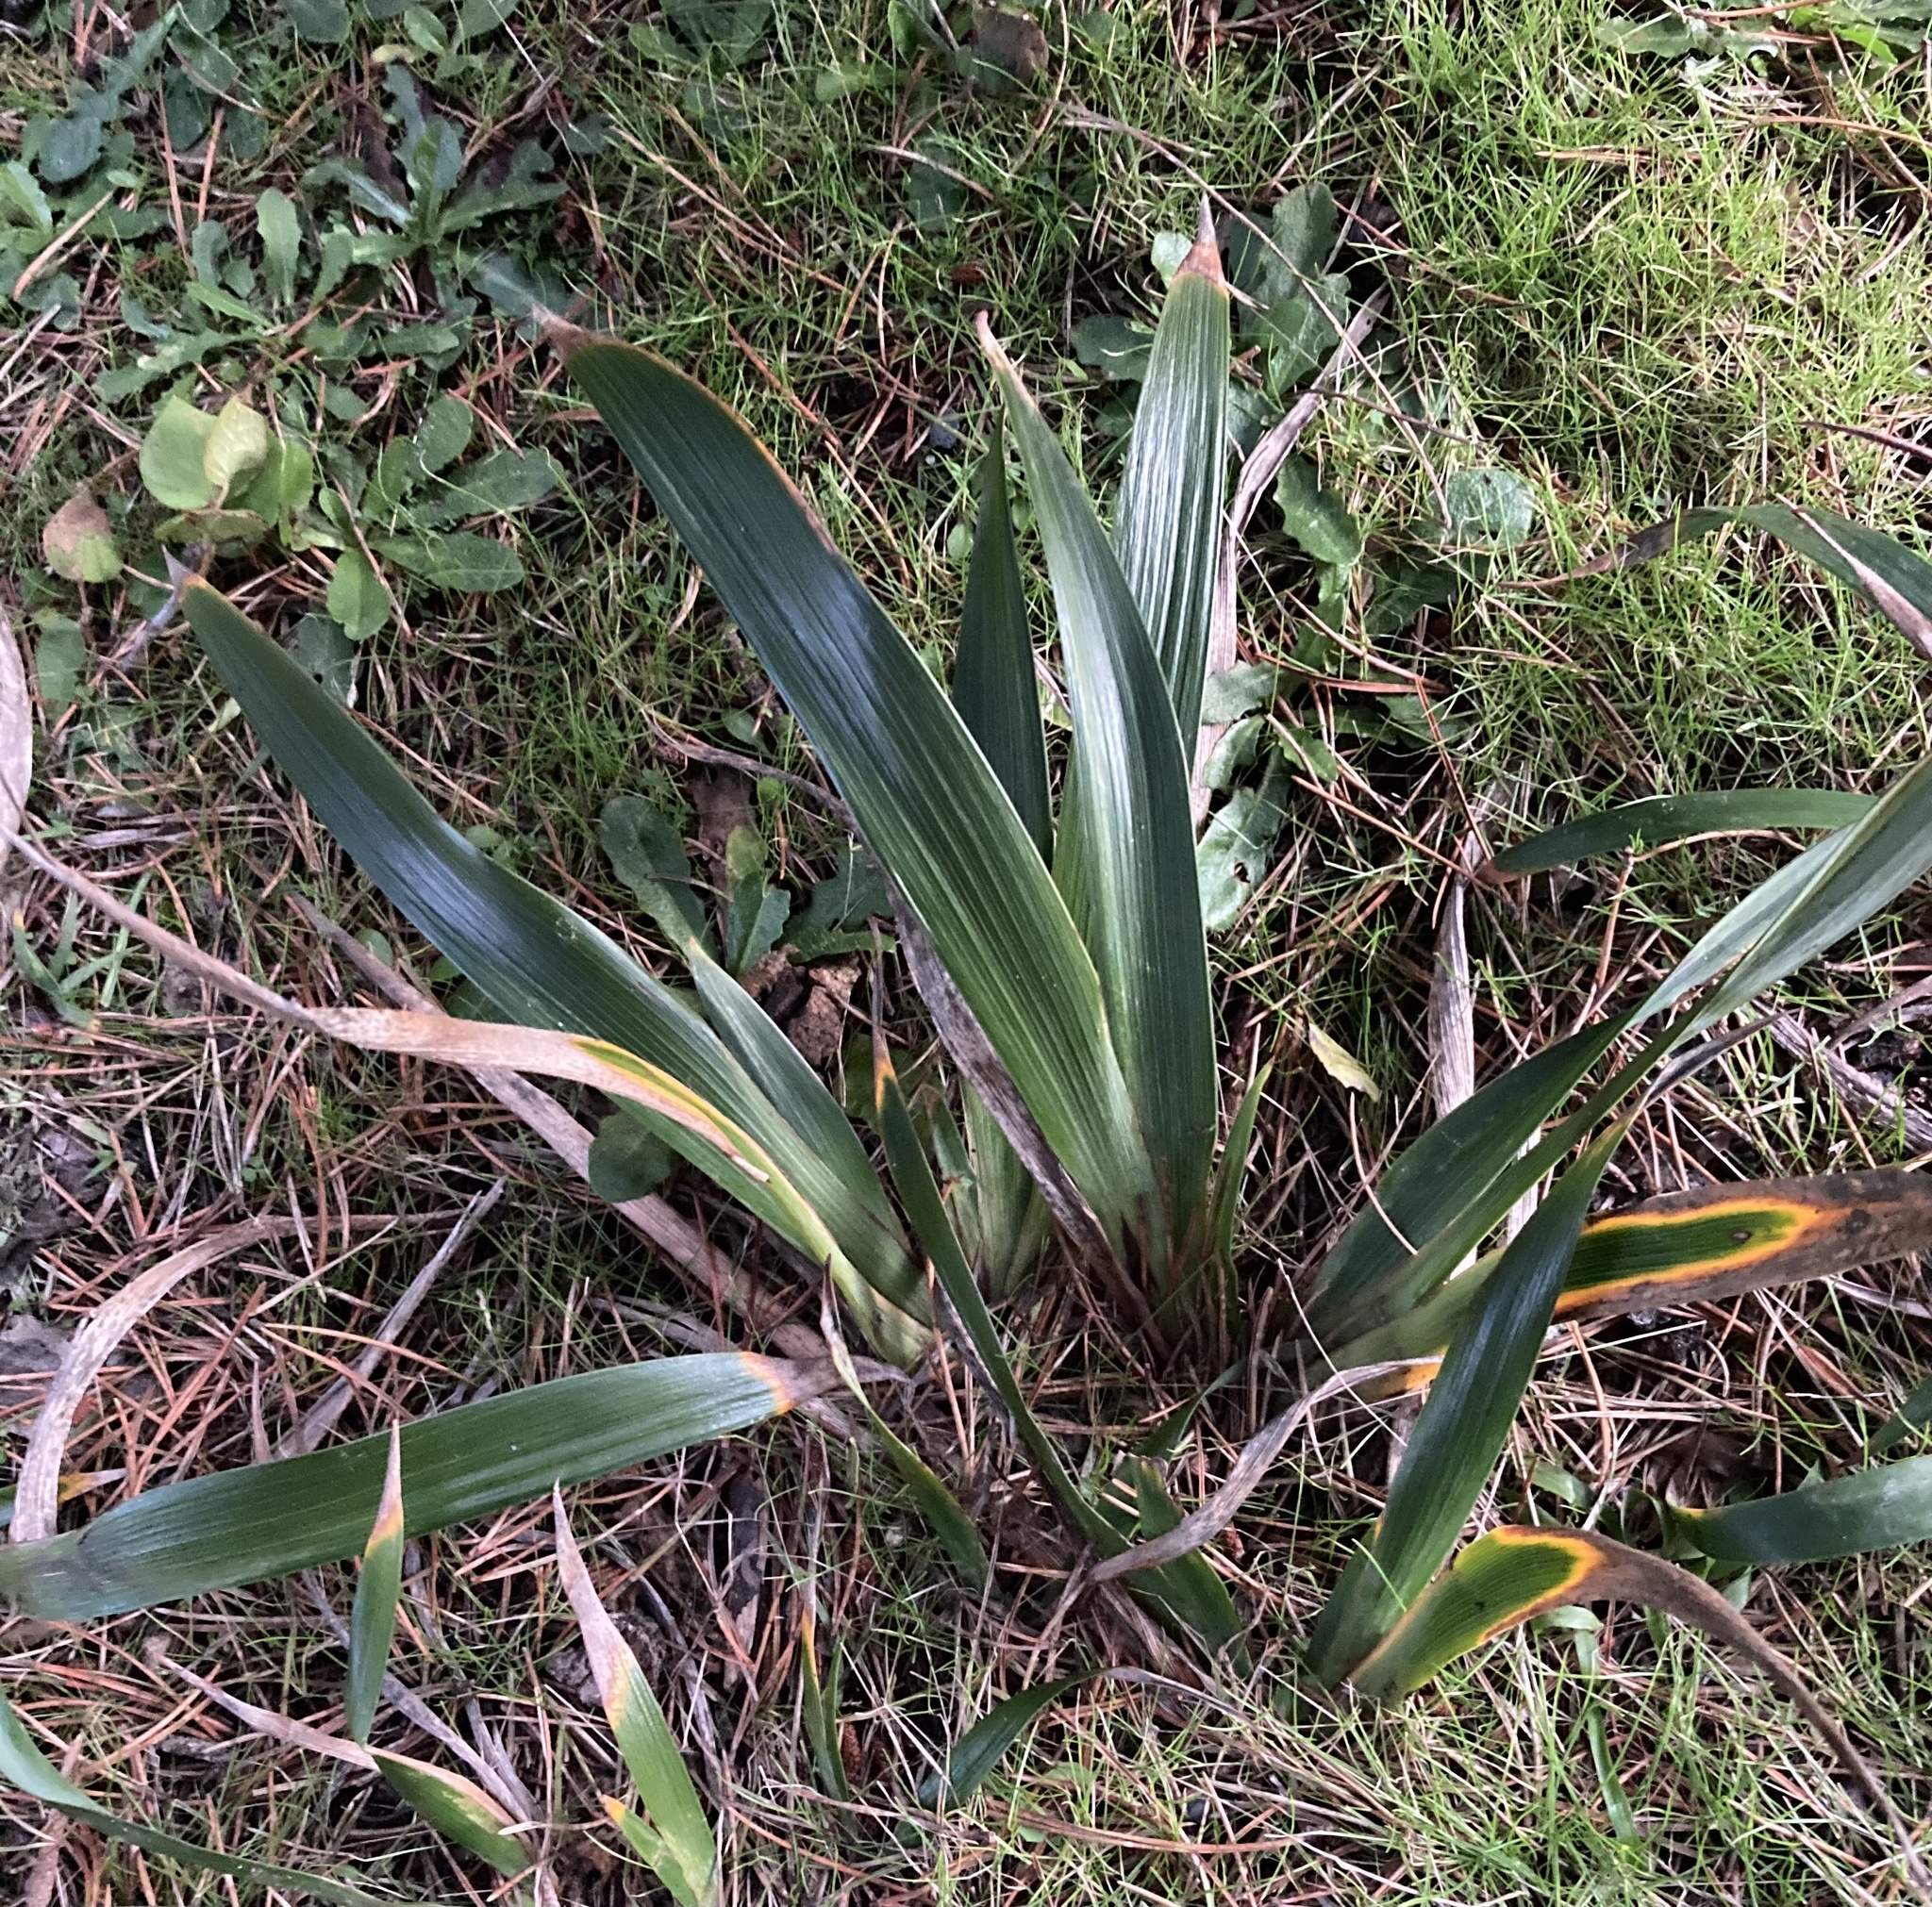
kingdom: Plantae
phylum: Tracheophyta
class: Liliopsida
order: Asparagales
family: Iridaceae
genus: Iris
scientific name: Iris douglasiana
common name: Marin iris
